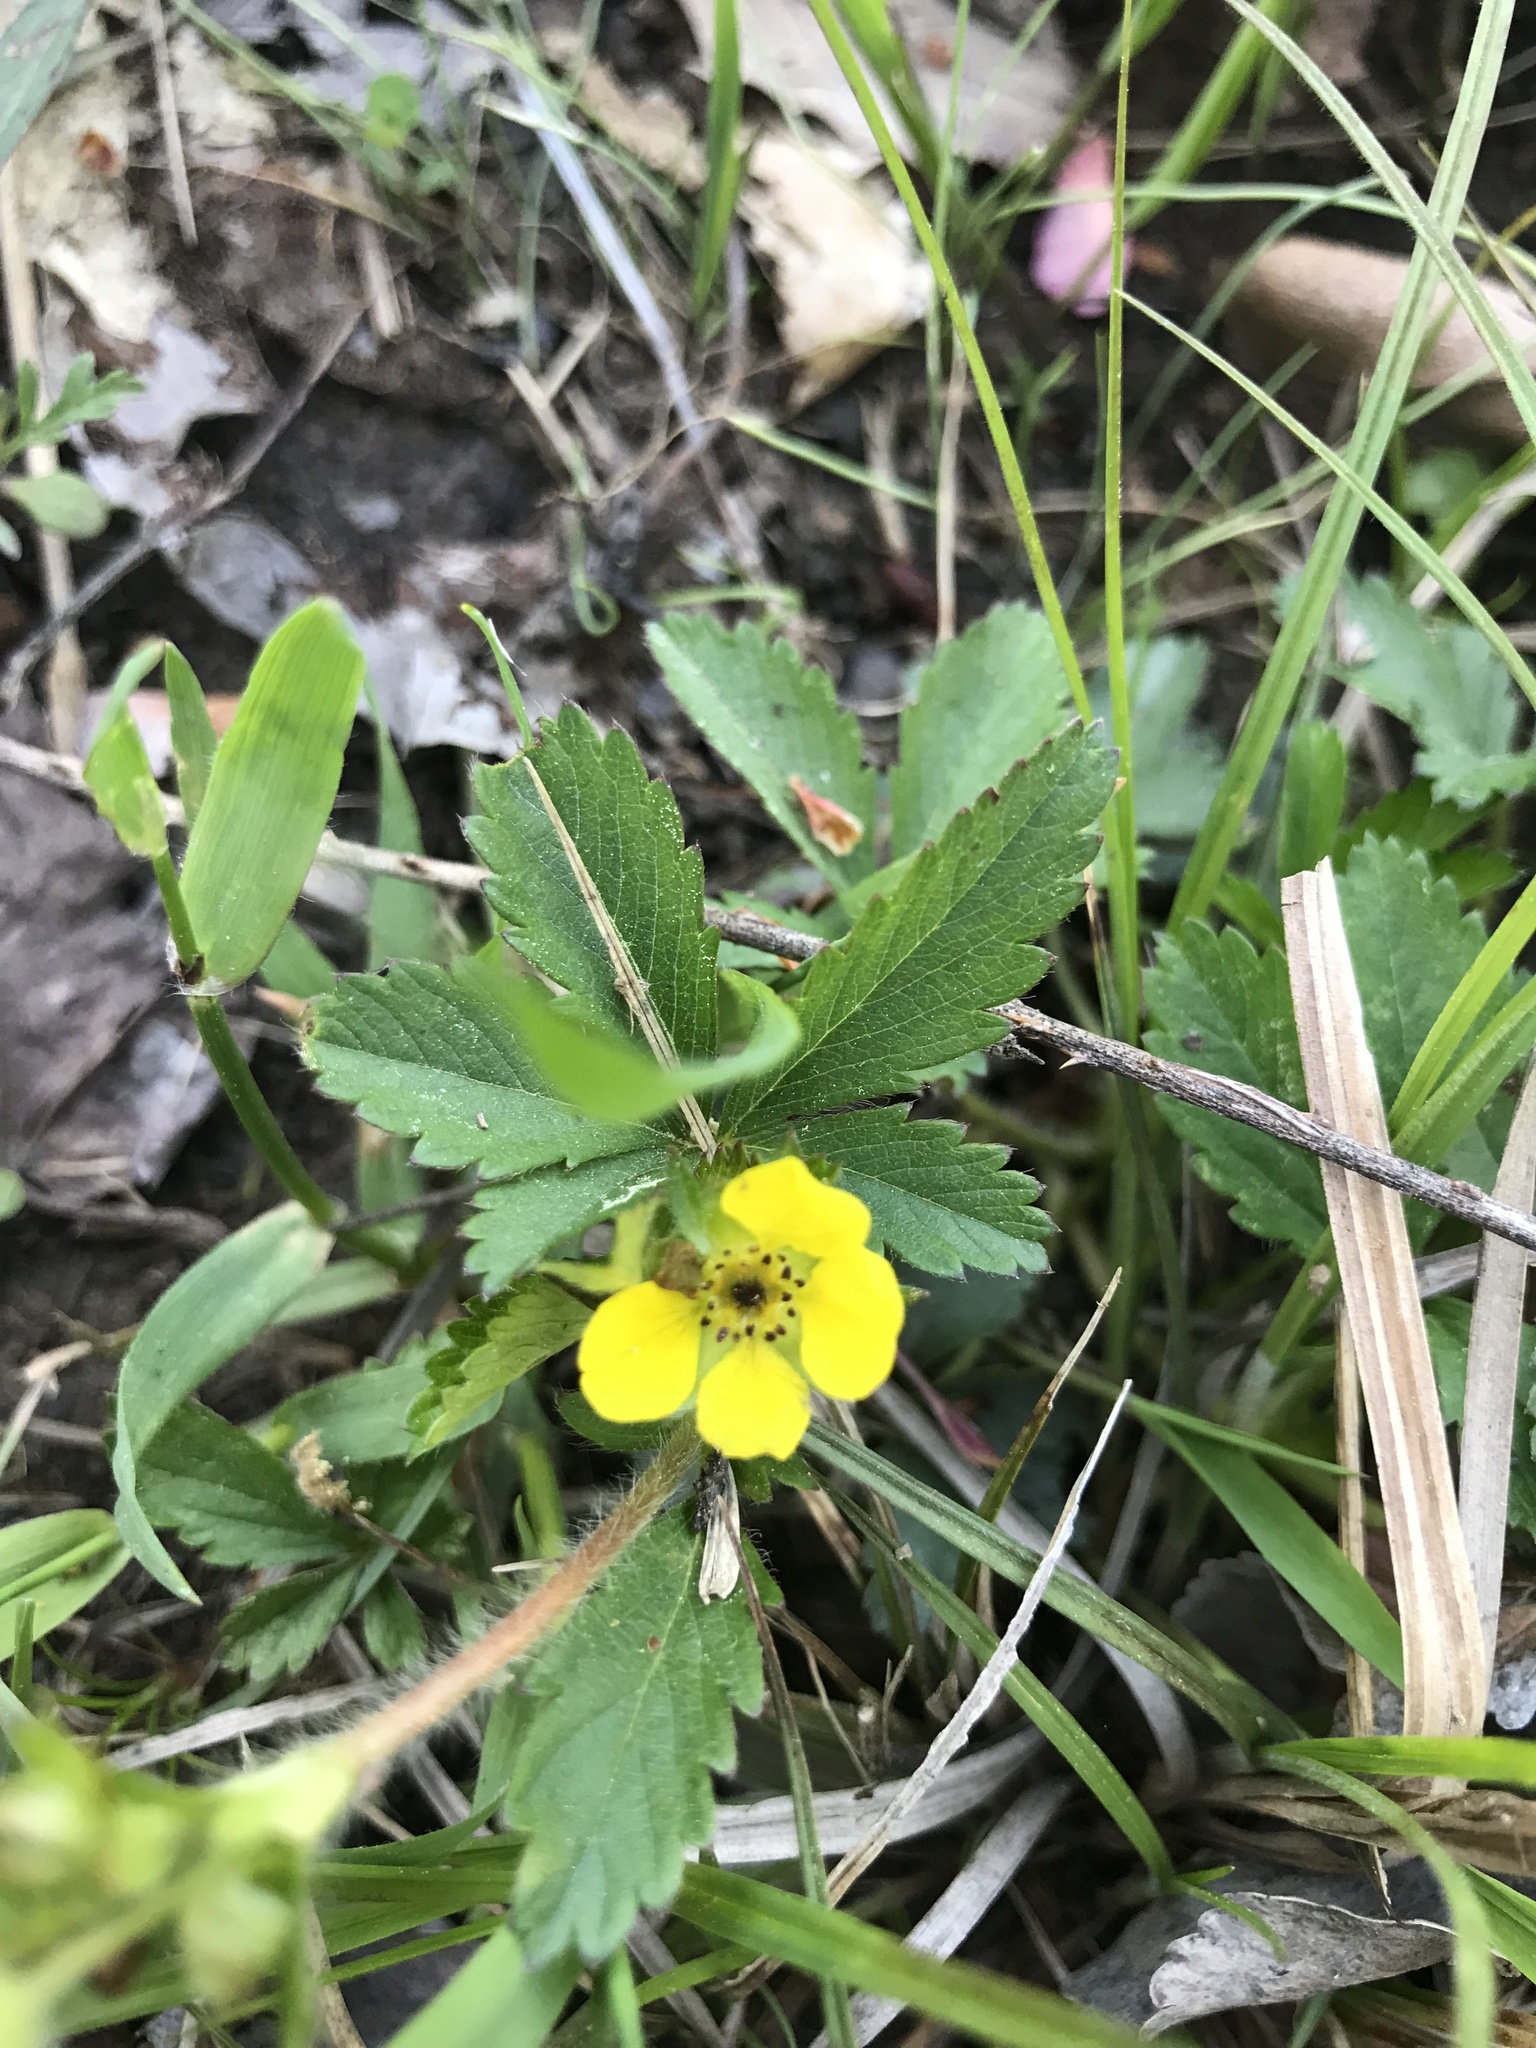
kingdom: Plantae
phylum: Tracheophyta
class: Magnoliopsida
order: Rosales
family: Rosaceae
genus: Potentilla
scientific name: Potentilla simplex
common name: Old field cinquefoil
